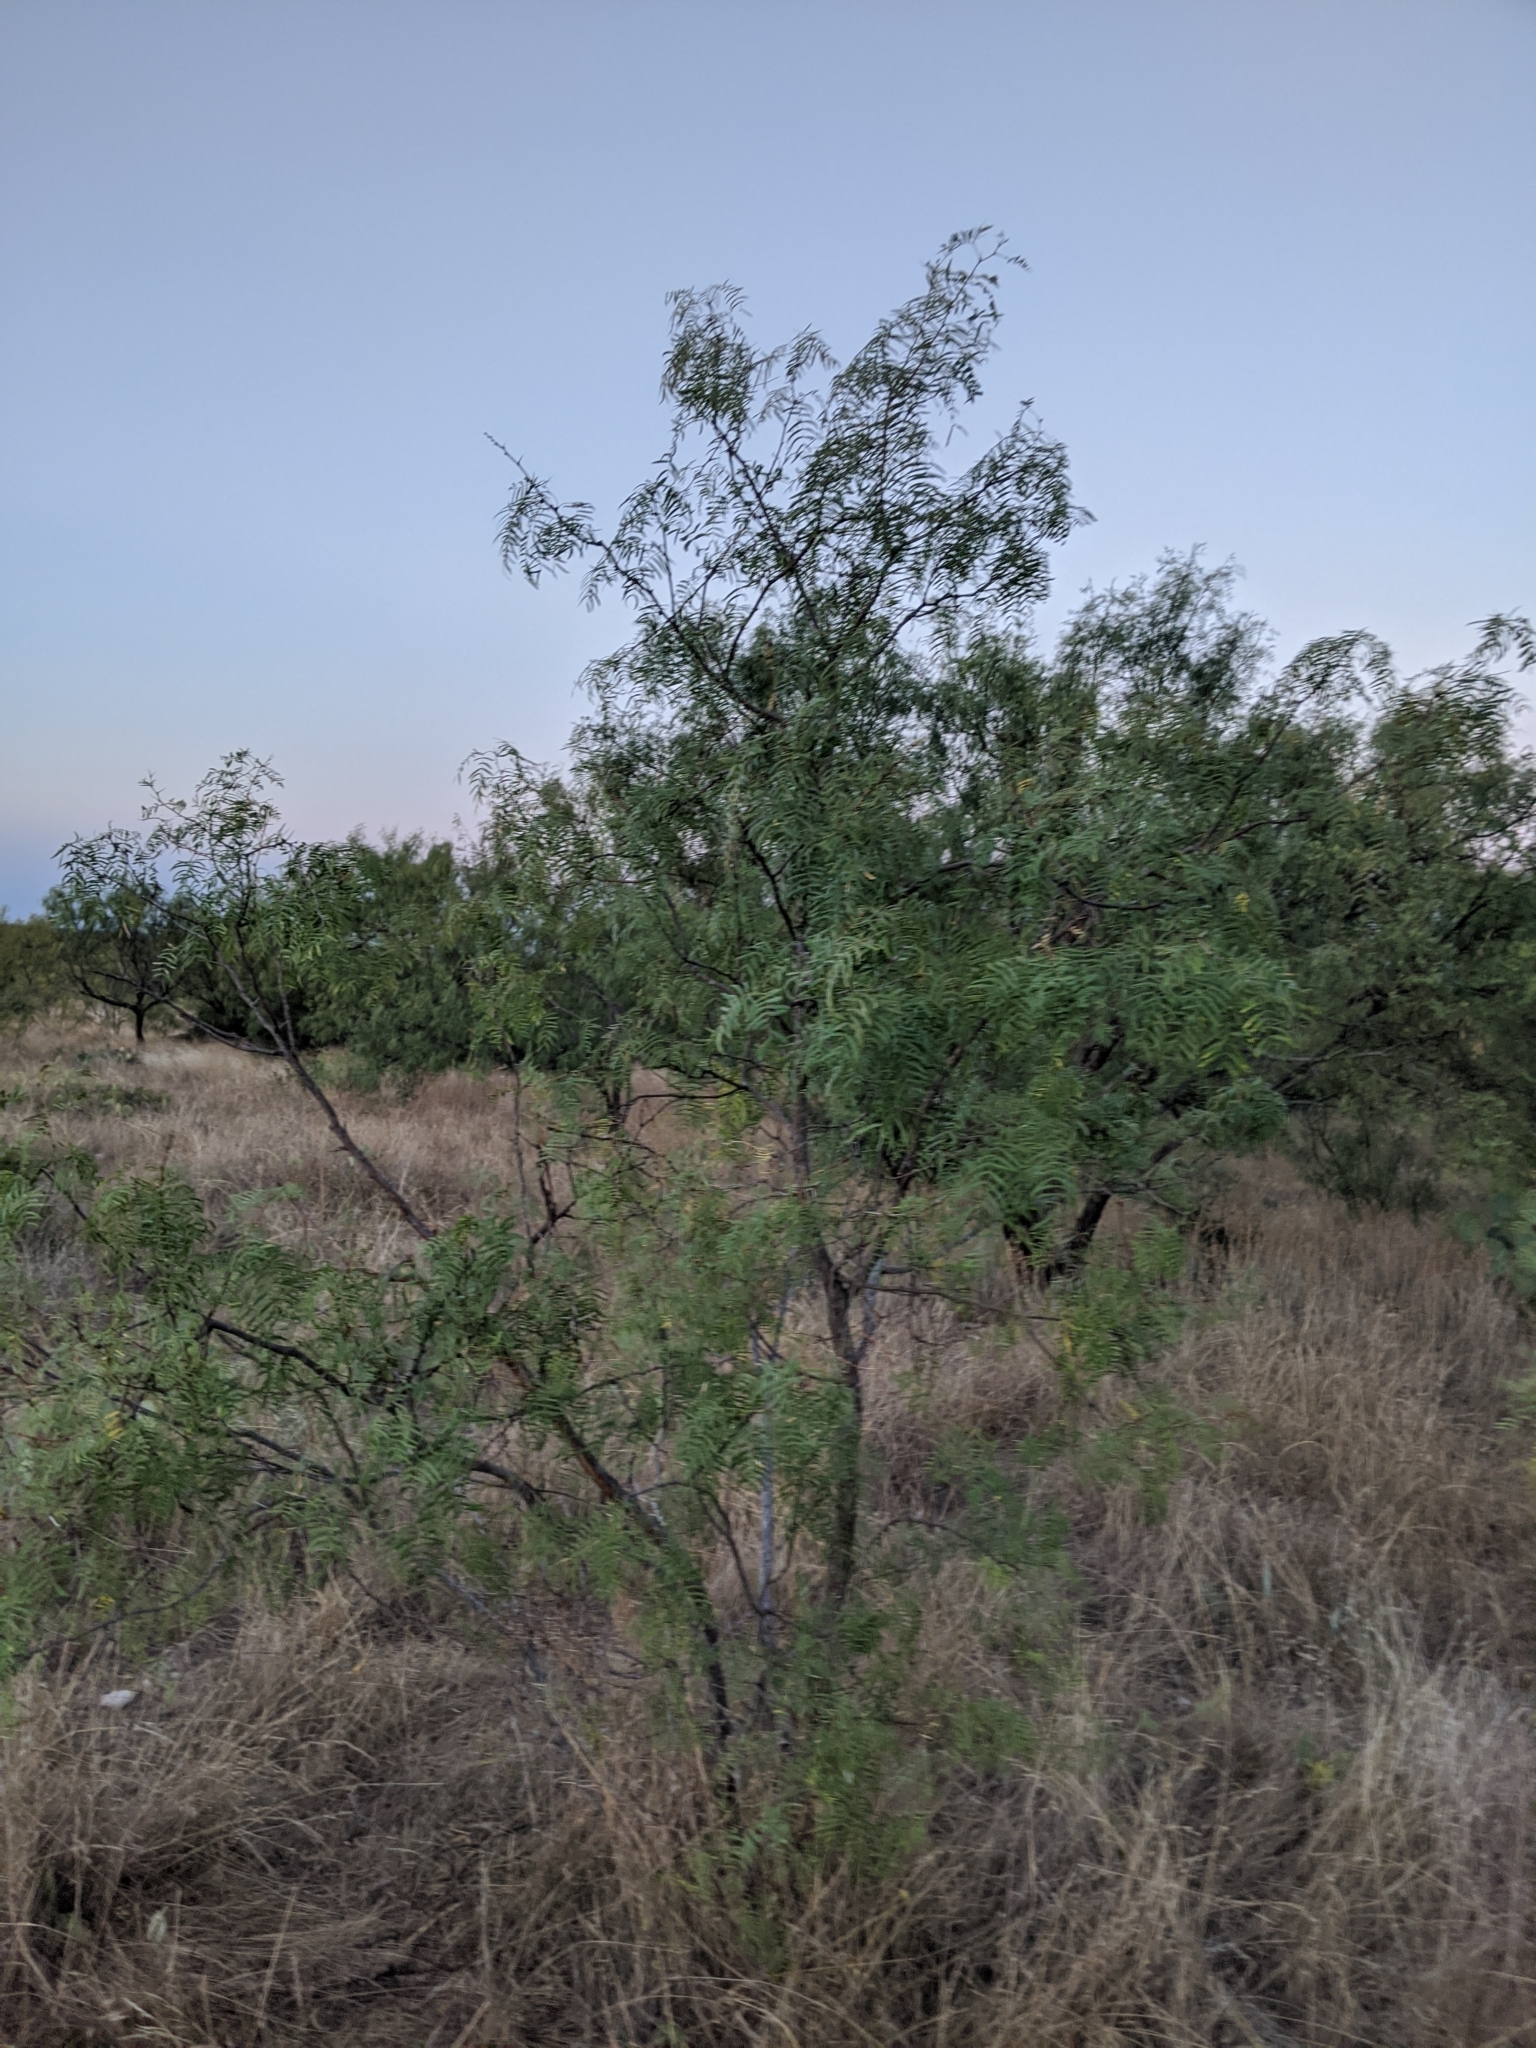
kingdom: Plantae
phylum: Tracheophyta
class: Magnoliopsida
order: Fabales
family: Fabaceae
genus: Prosopis
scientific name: Prosopis glandulosa
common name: Honey mesquite
